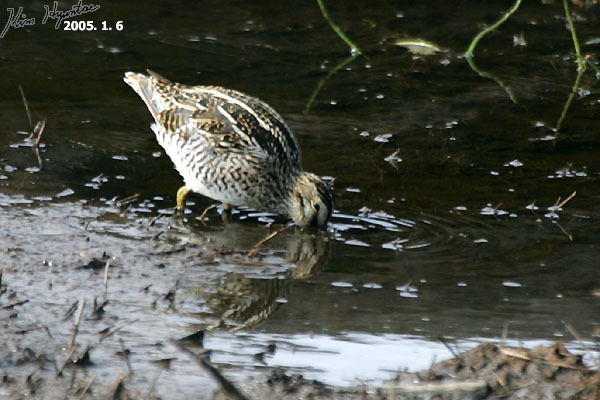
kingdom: Animalia
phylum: Chordata
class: Aves
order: Charadriiformes
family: Scolopacidae
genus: Gallinago
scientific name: Gallinago magellanica
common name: Magellanic snipe
